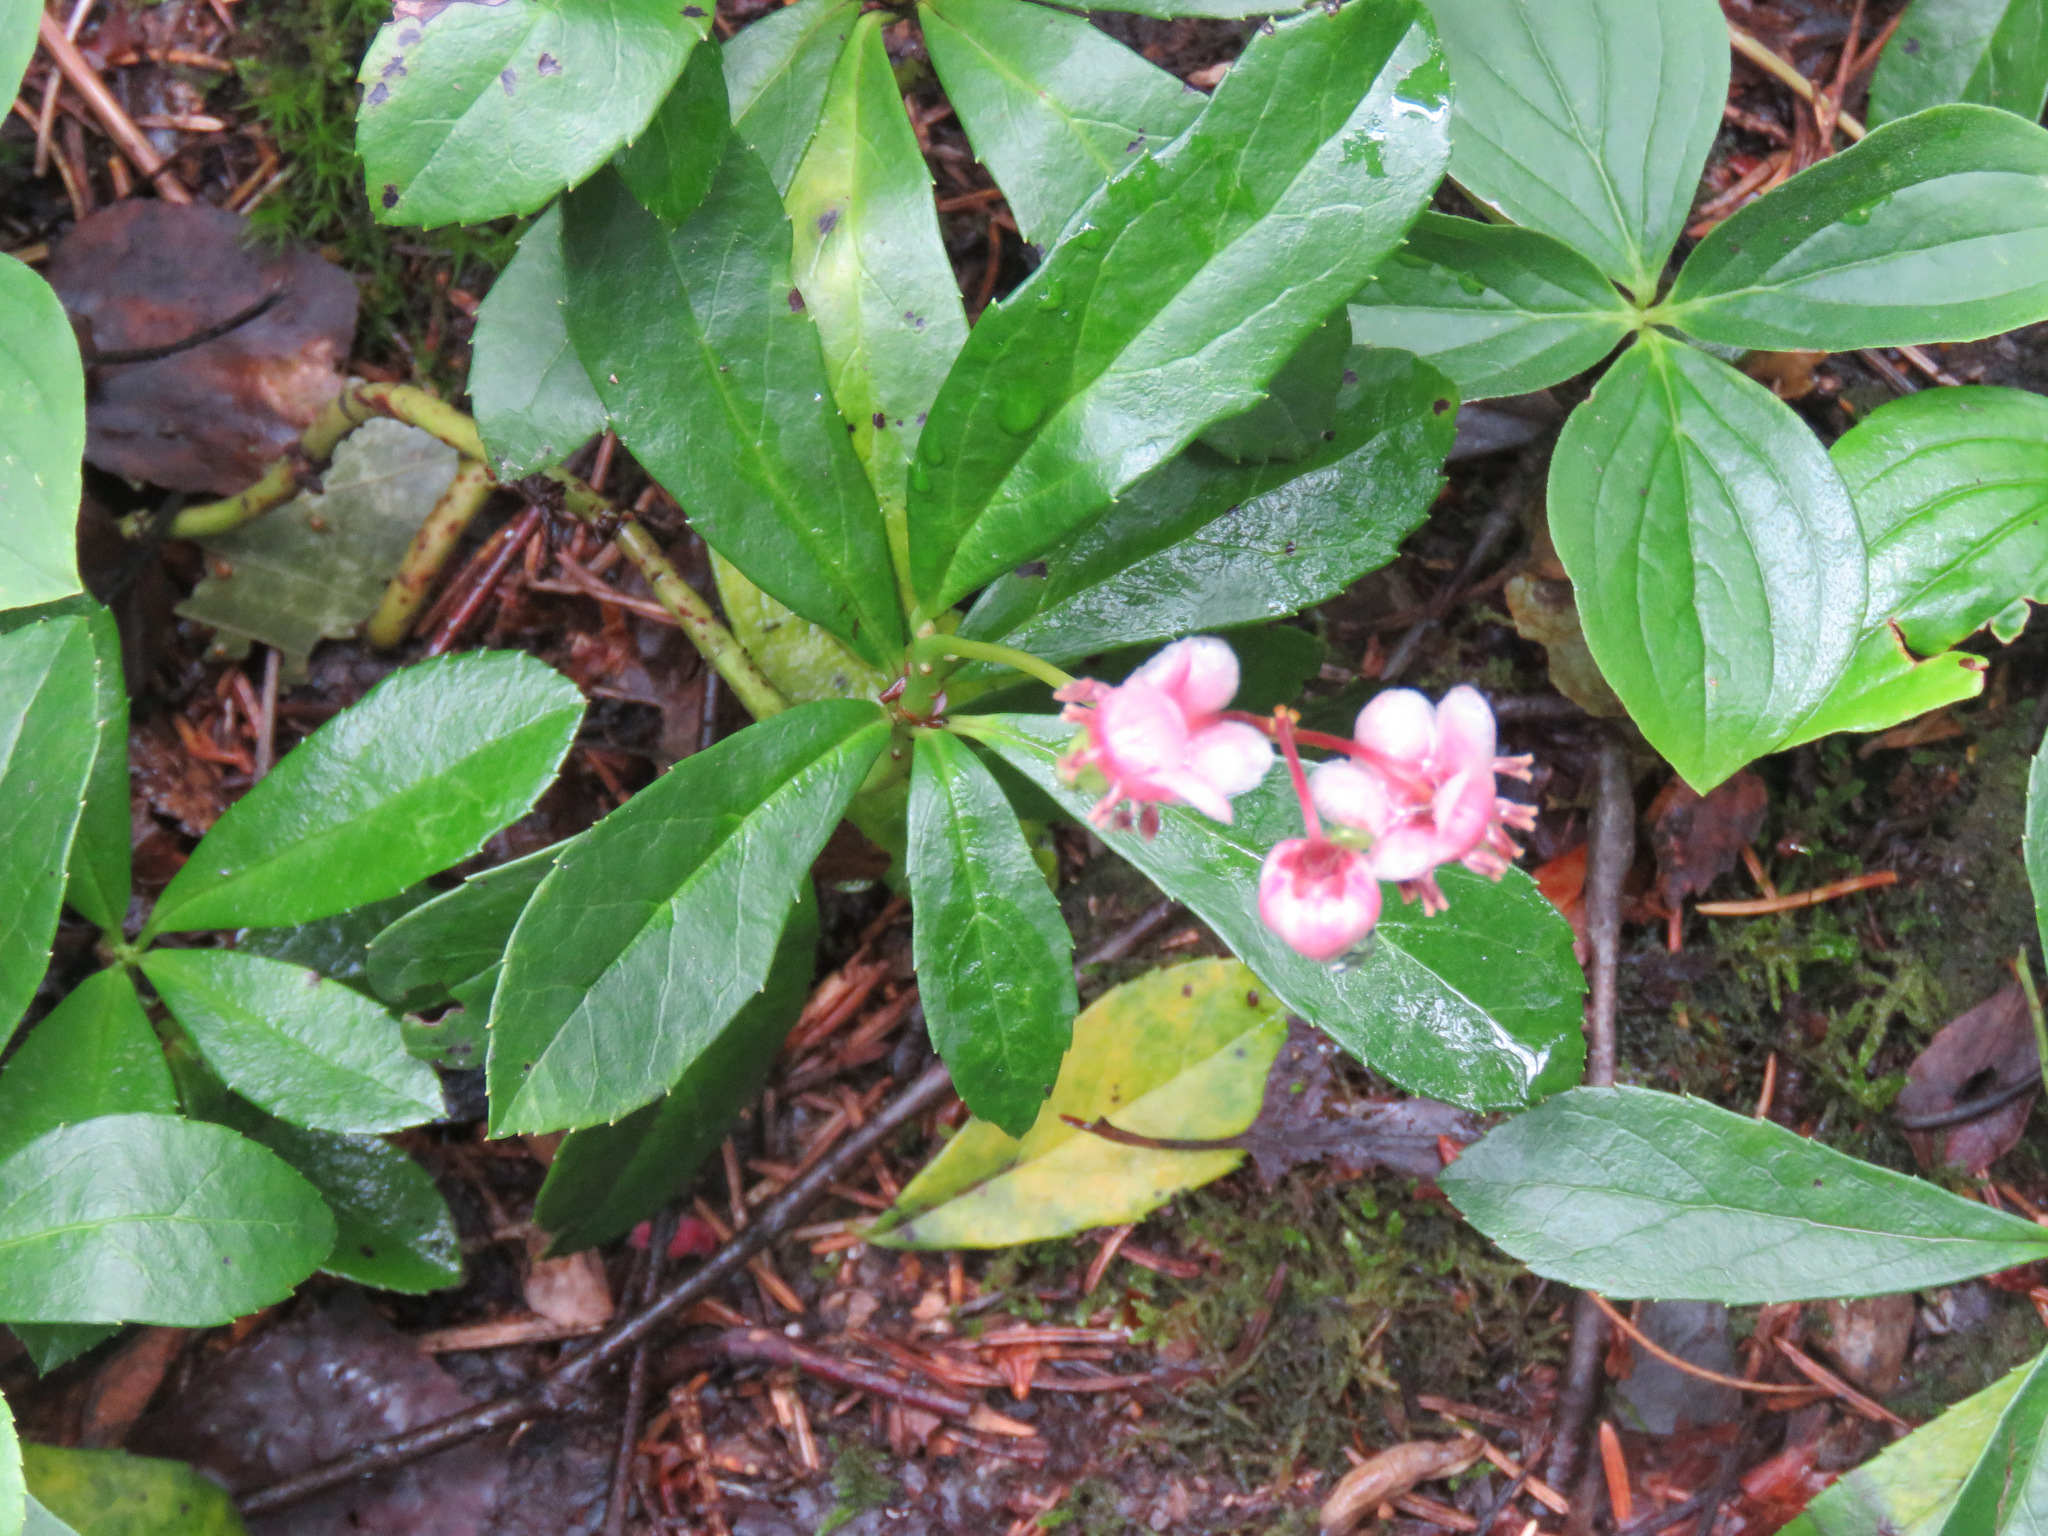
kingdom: Plantae
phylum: Tracheophyta
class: Magnoliopsida
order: Ericales
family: Ericaceae
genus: Chimaphila
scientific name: Chimaphila umbellata
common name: Pipsissewa
